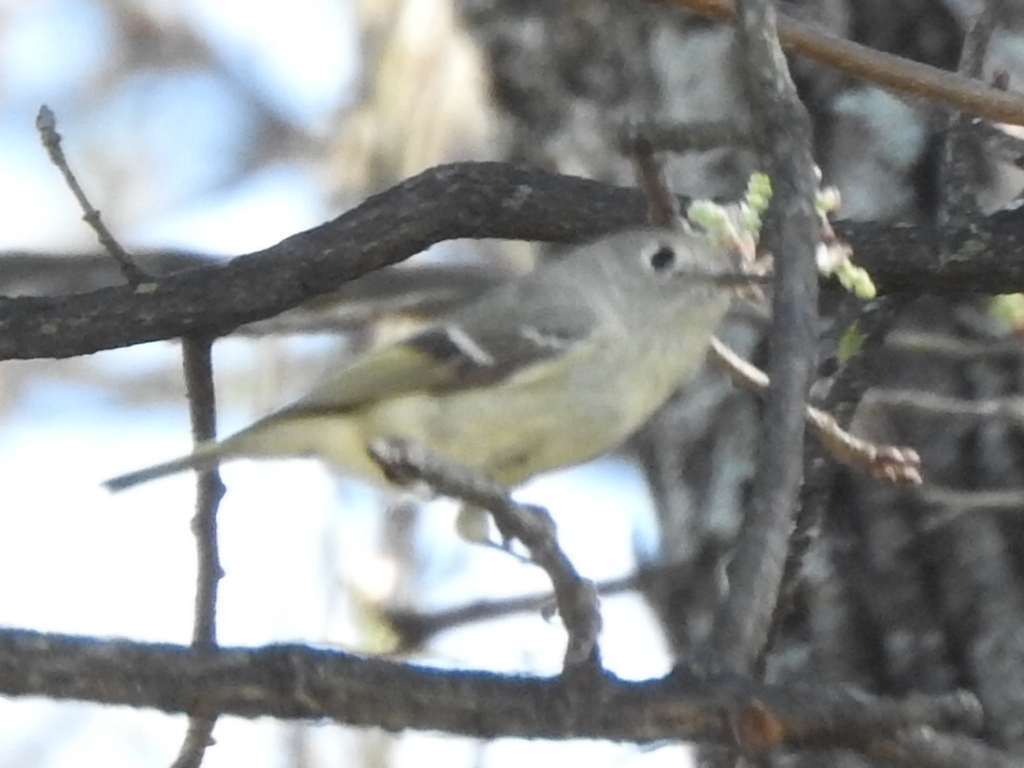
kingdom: Animalia
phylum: Chordata
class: Aves
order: Passeriformes
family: Regulidae
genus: Regulus
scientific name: Regulus calendula
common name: Ruby-crowned kinglet
